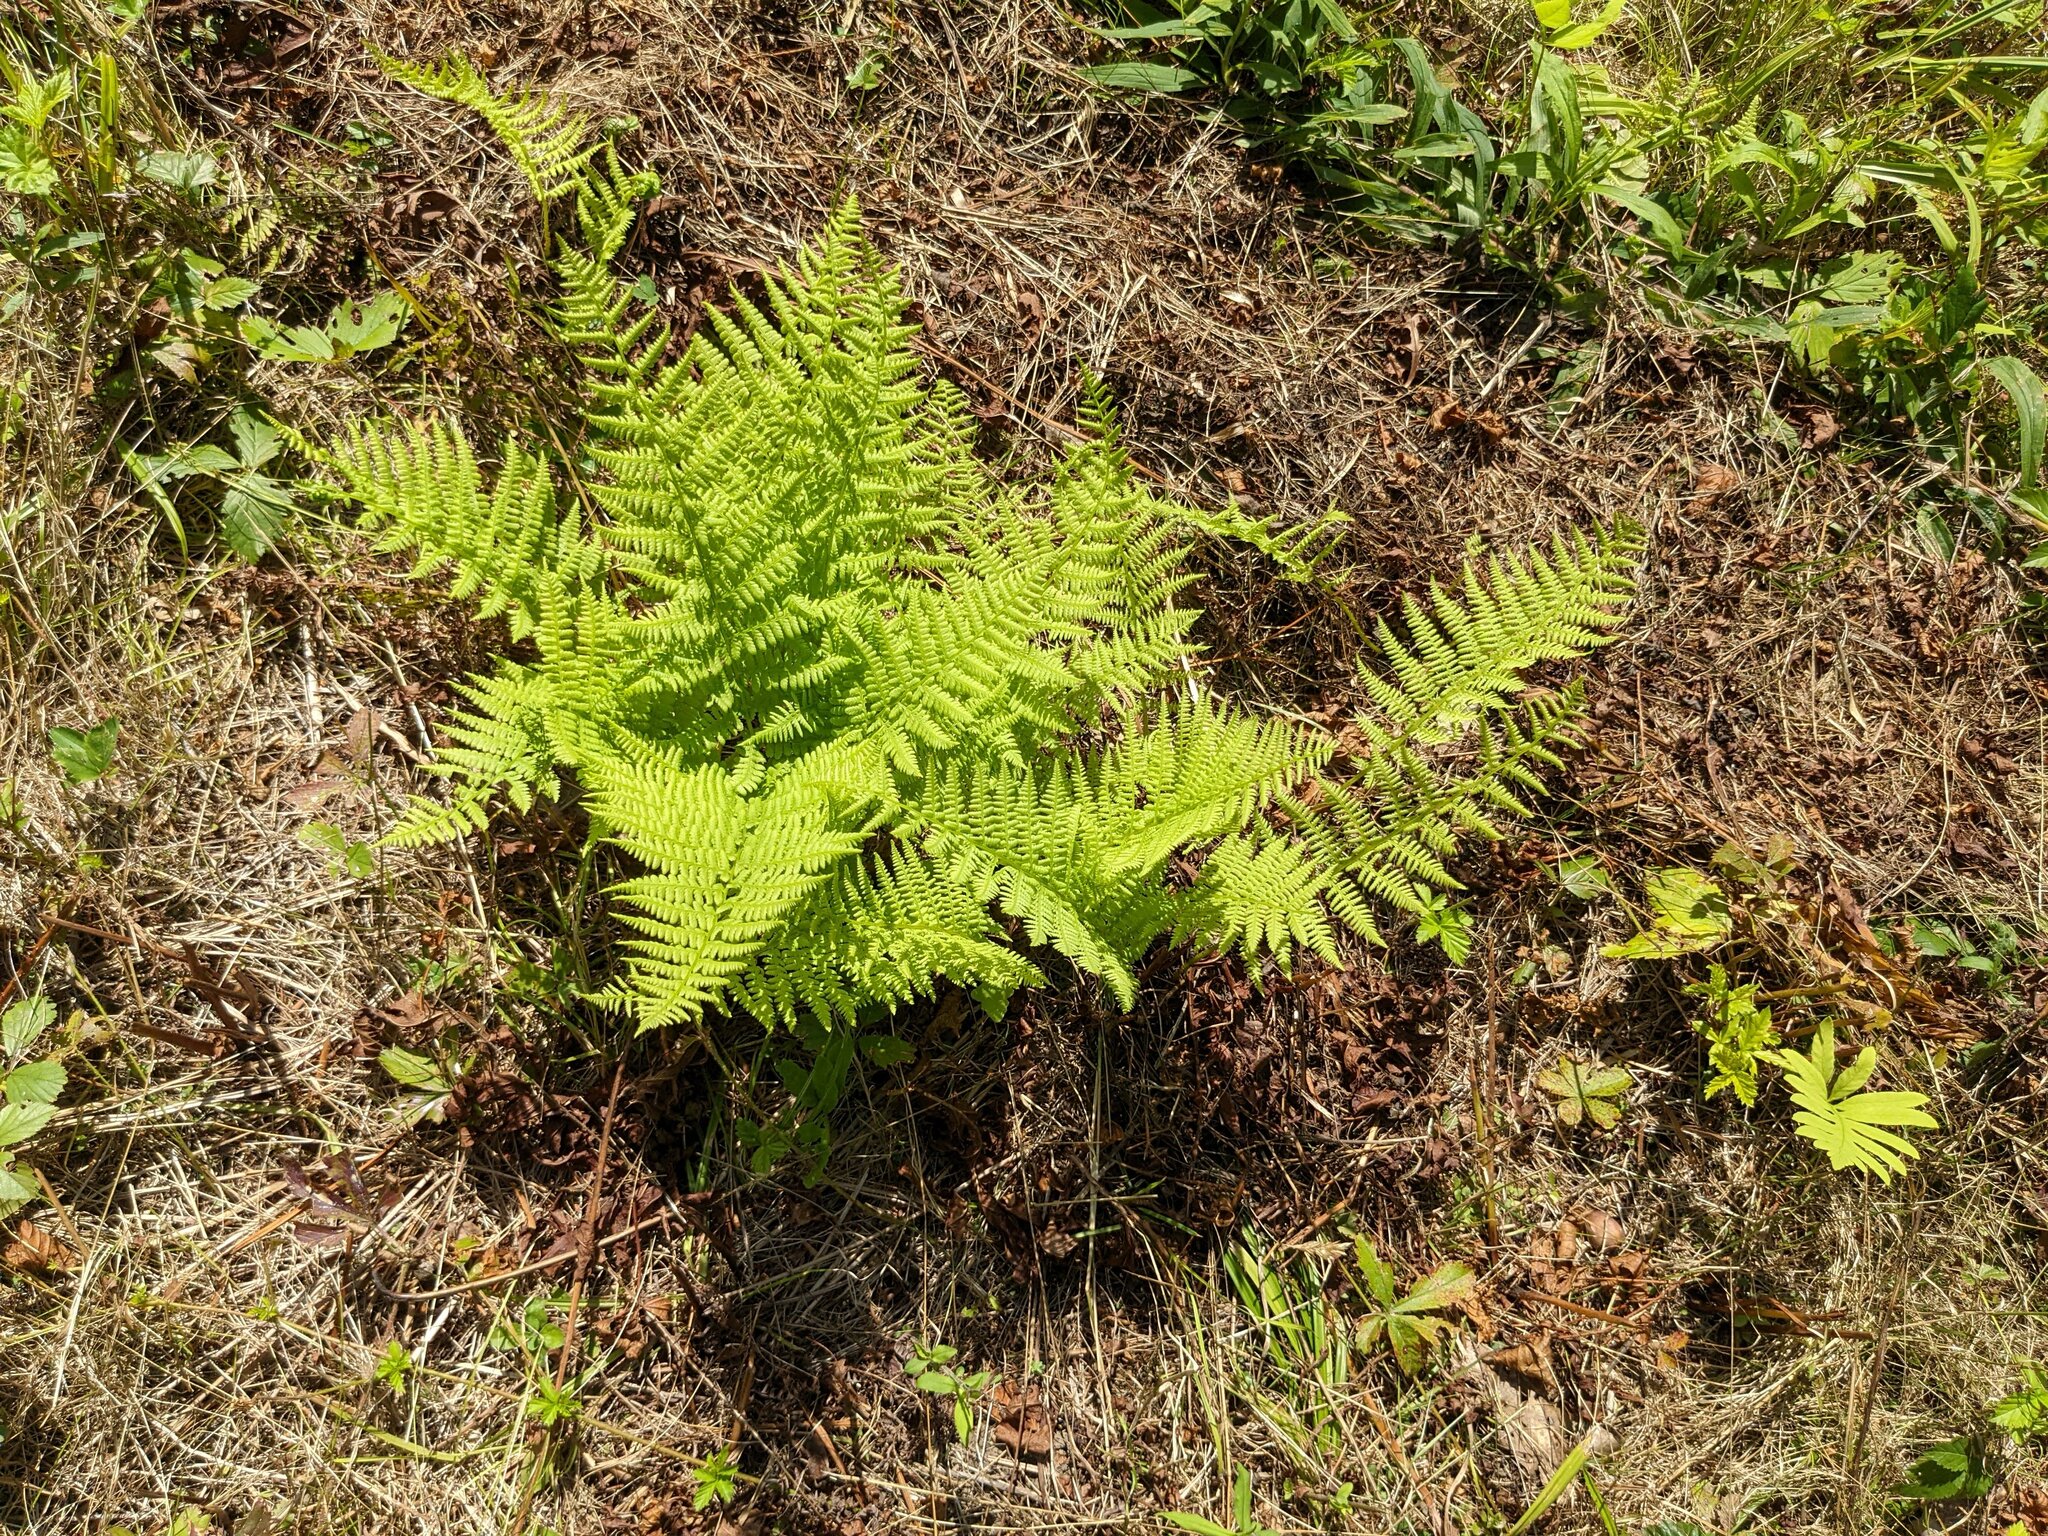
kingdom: Plantae
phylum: Tracheophyta
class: Polypodiopsida
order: Polypodiales
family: Athyriaceae
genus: Athyrium
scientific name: Athyrium angustum
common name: Northern lady fern
